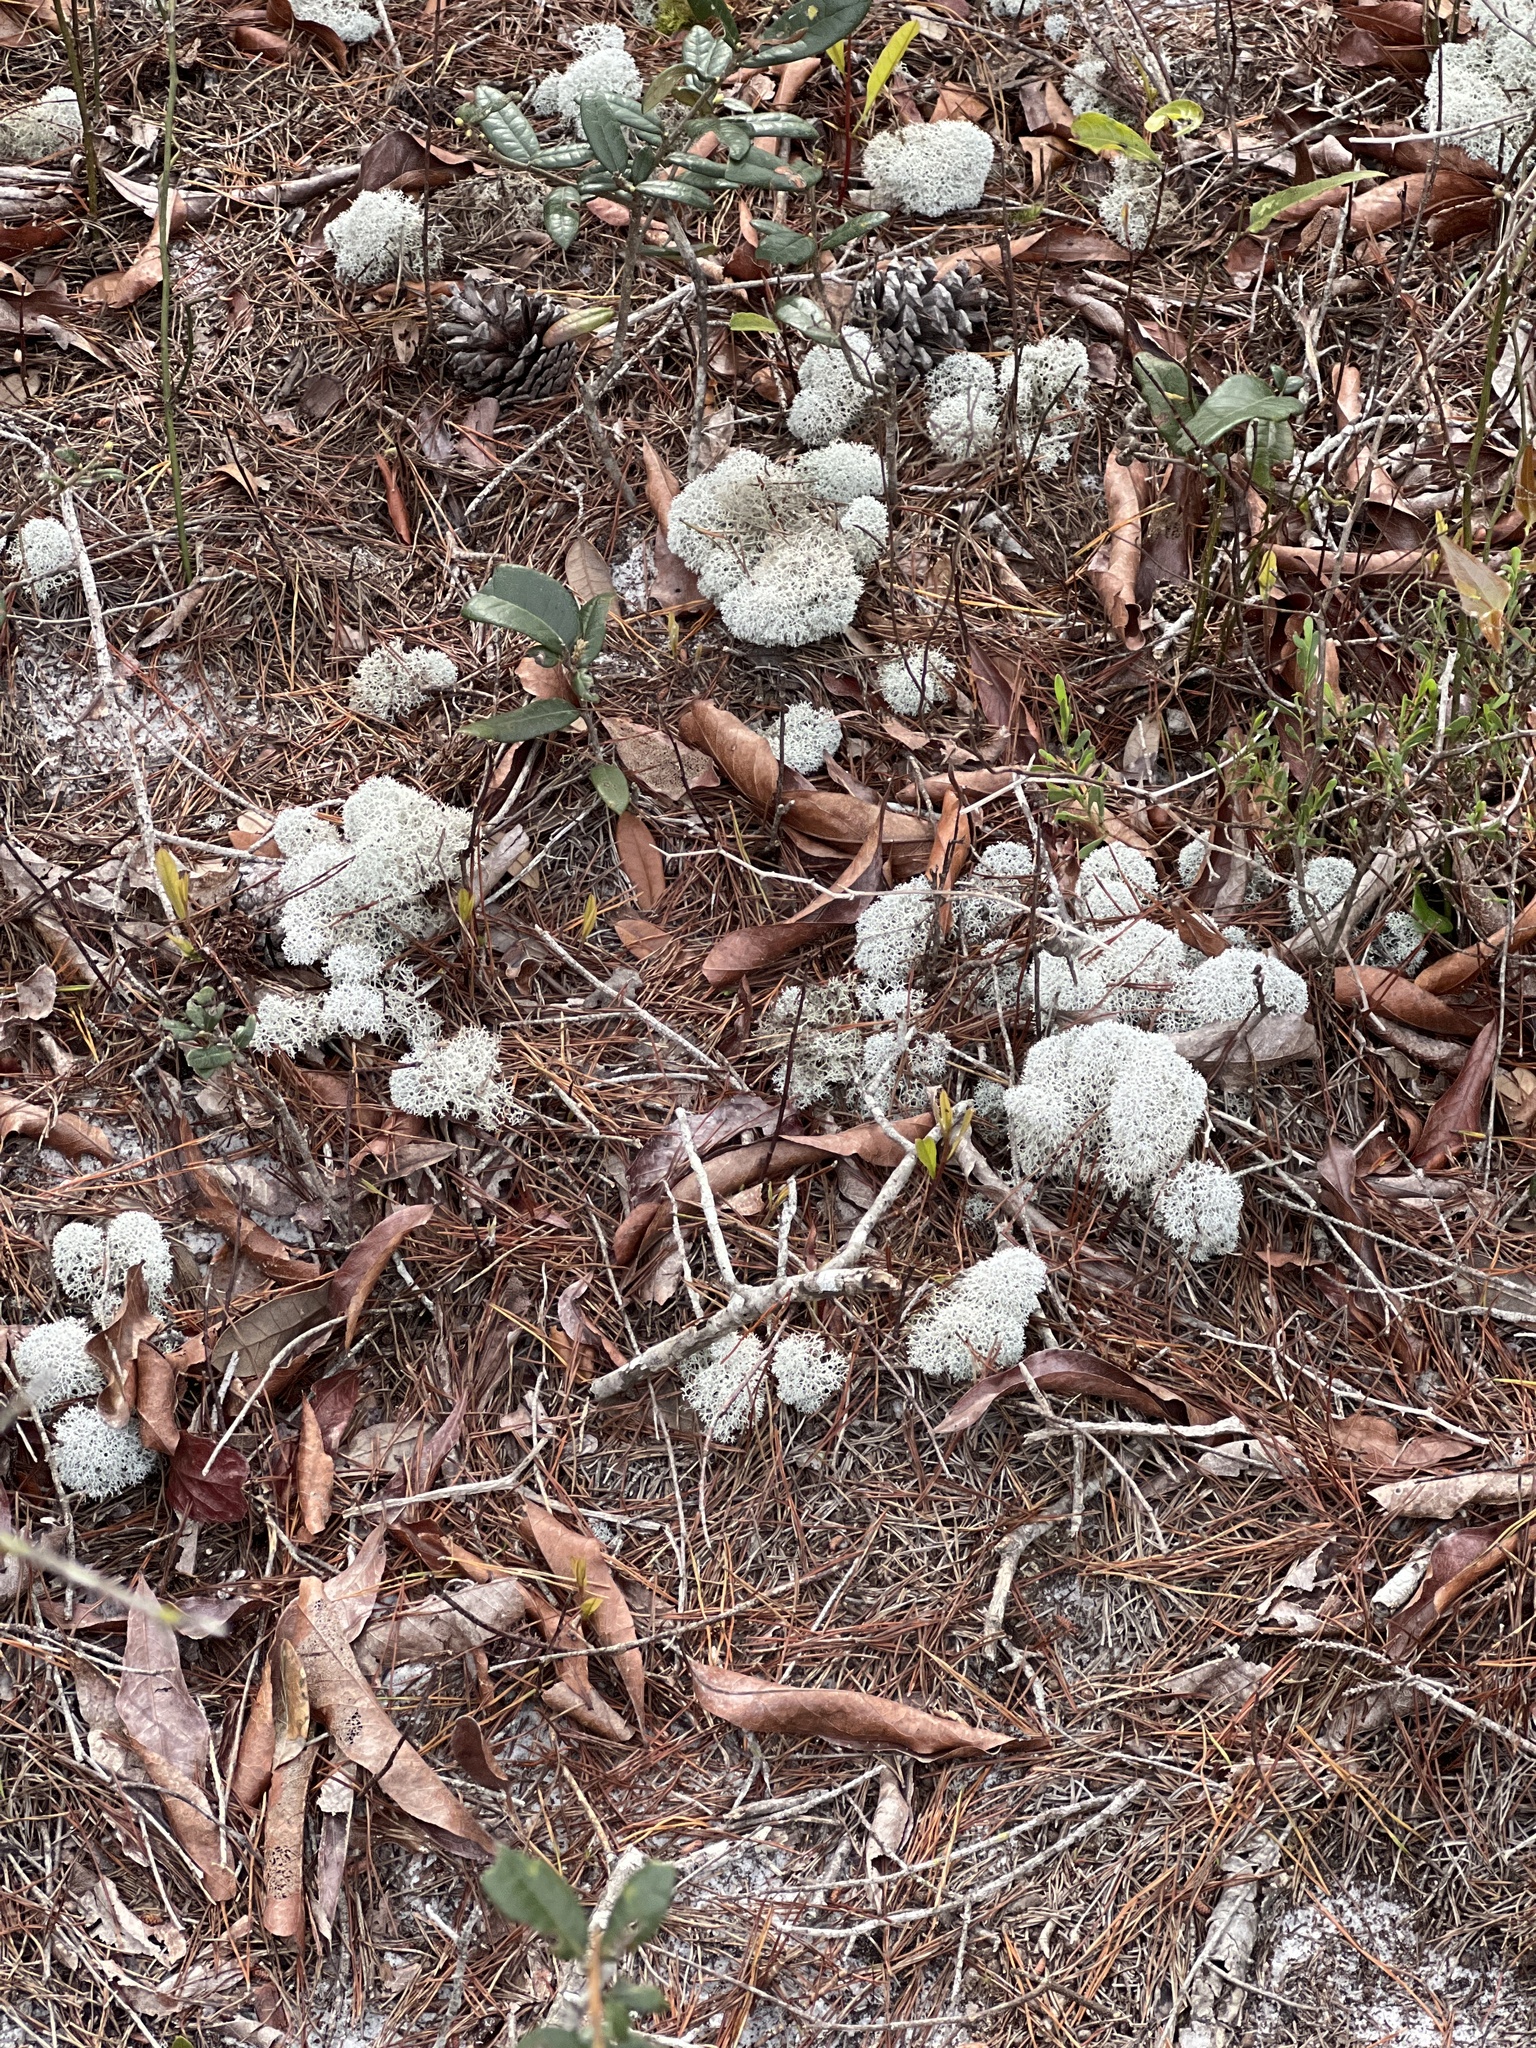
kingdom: Fungi
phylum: Ascomycota
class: Lecanoromycetes
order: Lecanorales
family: Cladoniaceae
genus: Cladonia
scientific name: Cladonia evansii
